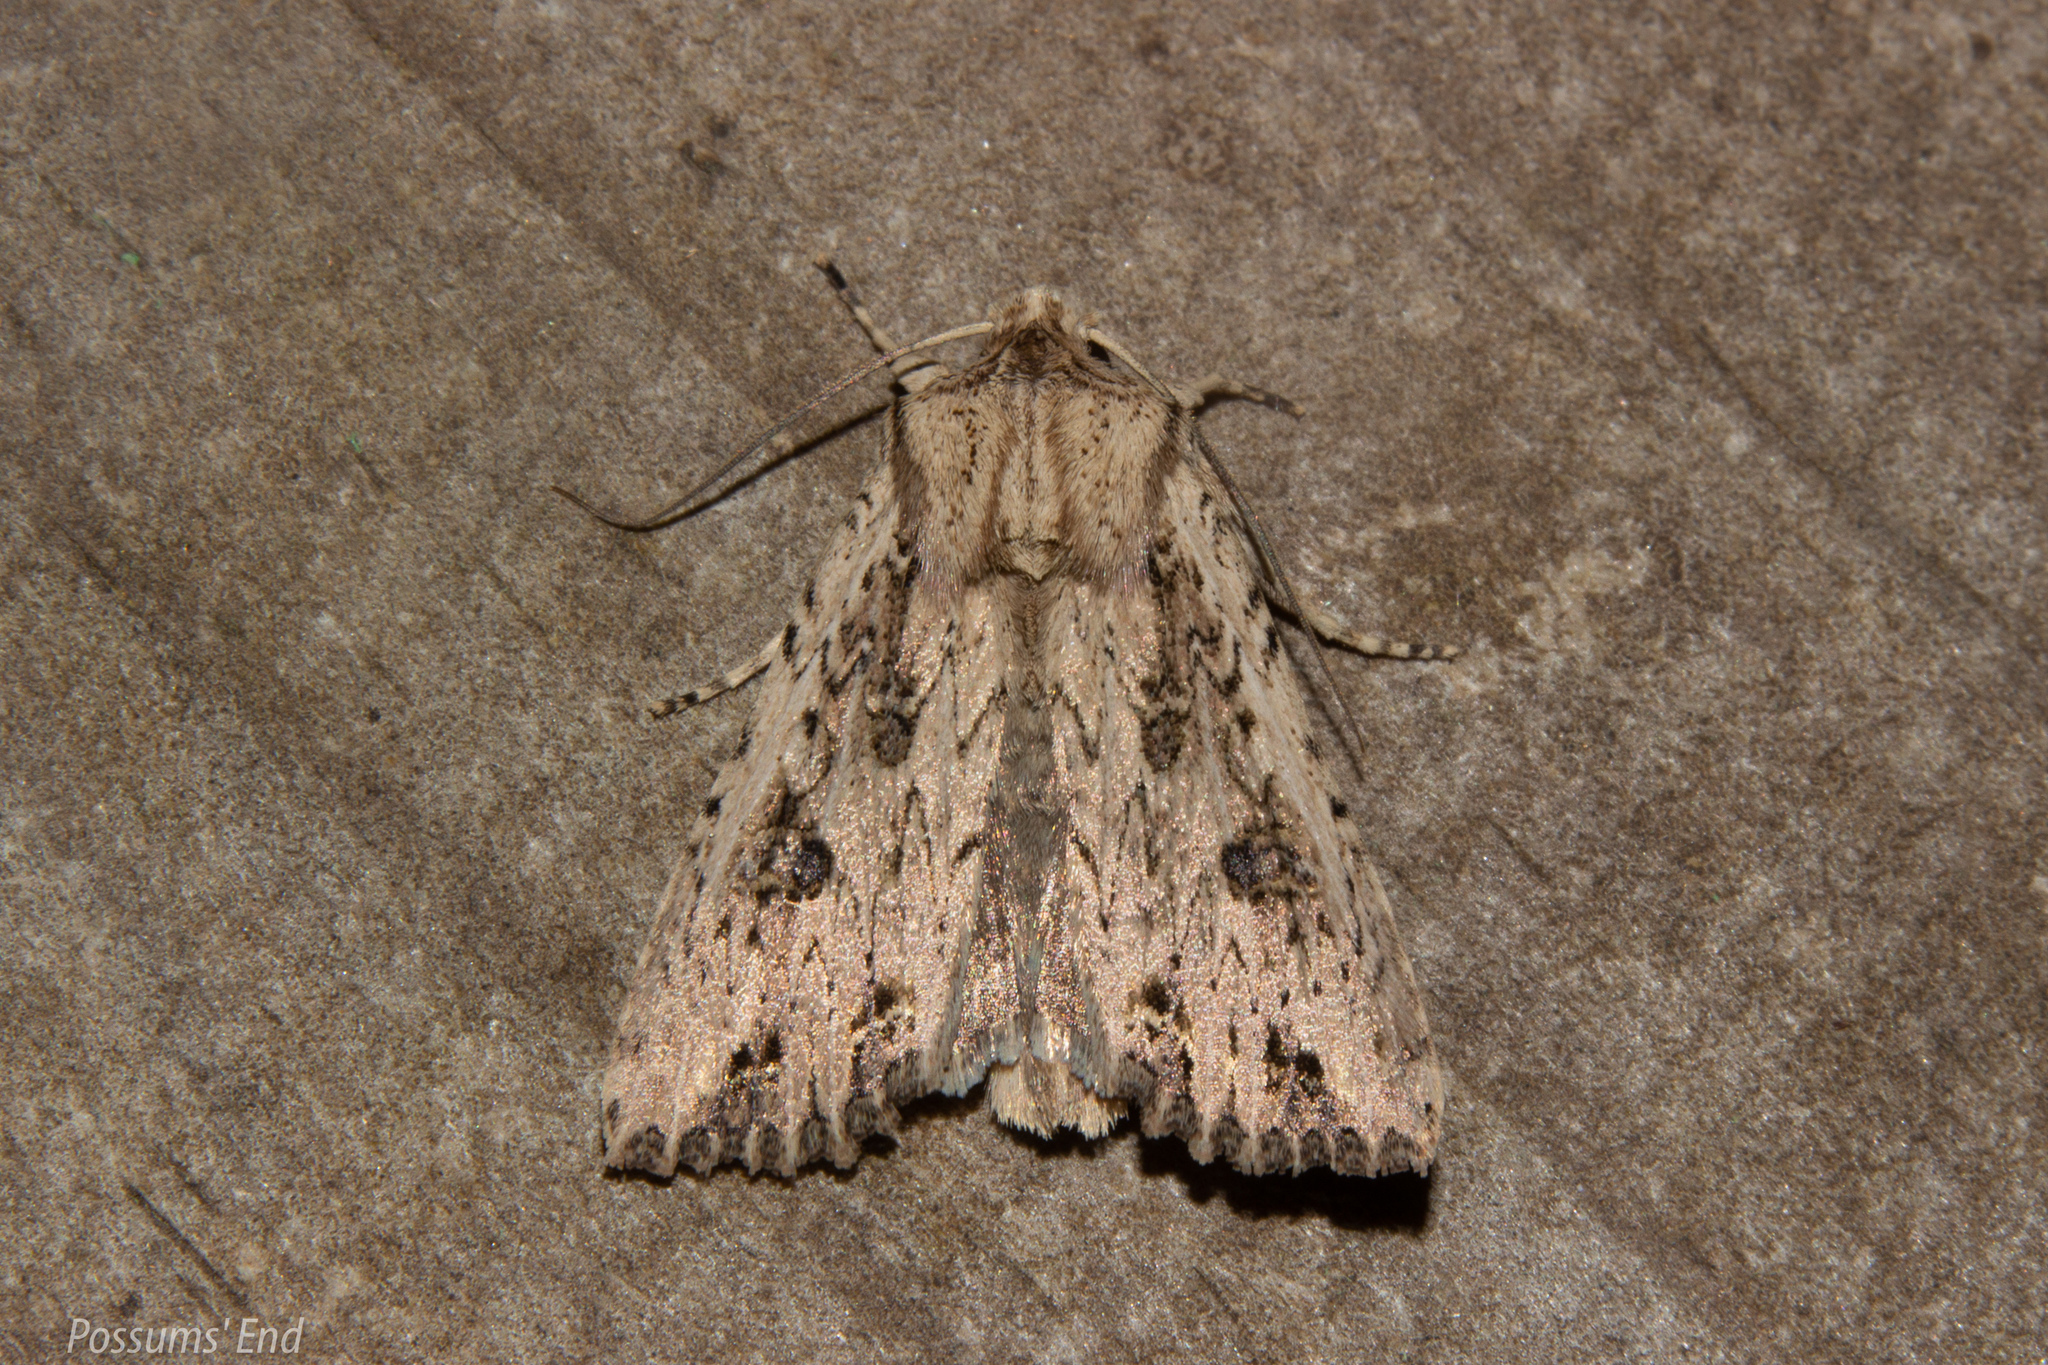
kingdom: Animalia
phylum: Arthropoda
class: Insecta
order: Lepidoptera
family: Noctuidae
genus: Ichneutica
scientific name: Ichneutica lignana
